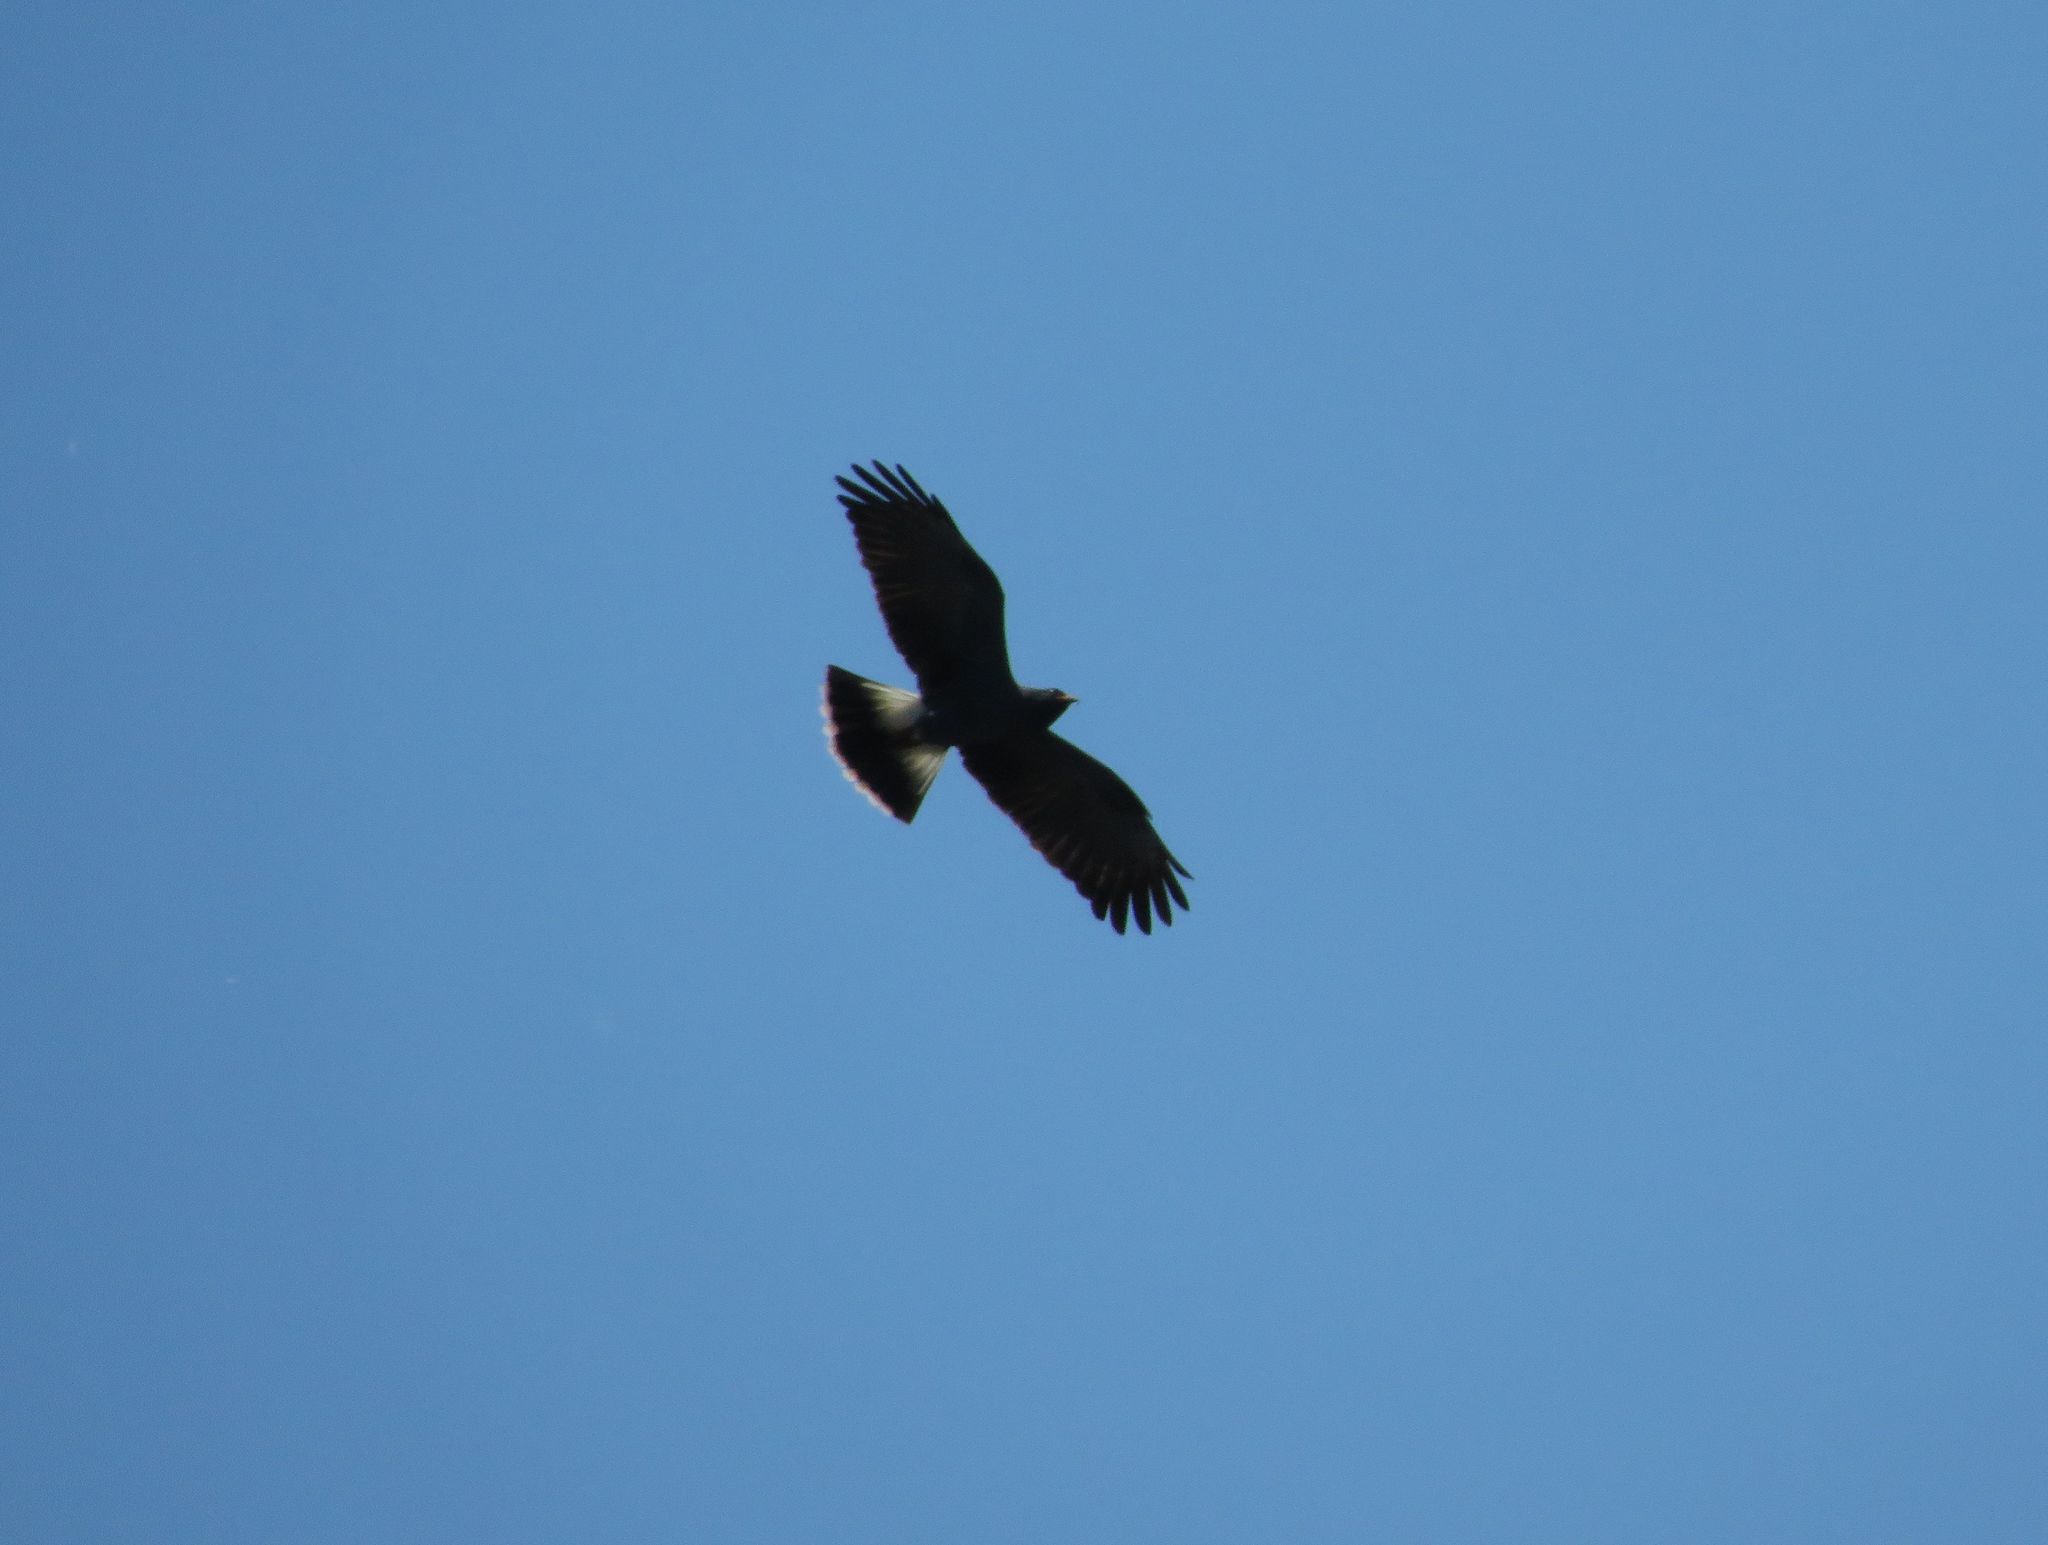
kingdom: Animalia
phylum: Chordata
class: Aves
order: Accipitriformes
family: Accipitridae
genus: Rostrhamus
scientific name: Rostrhamus sociabilis
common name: Snail kite
